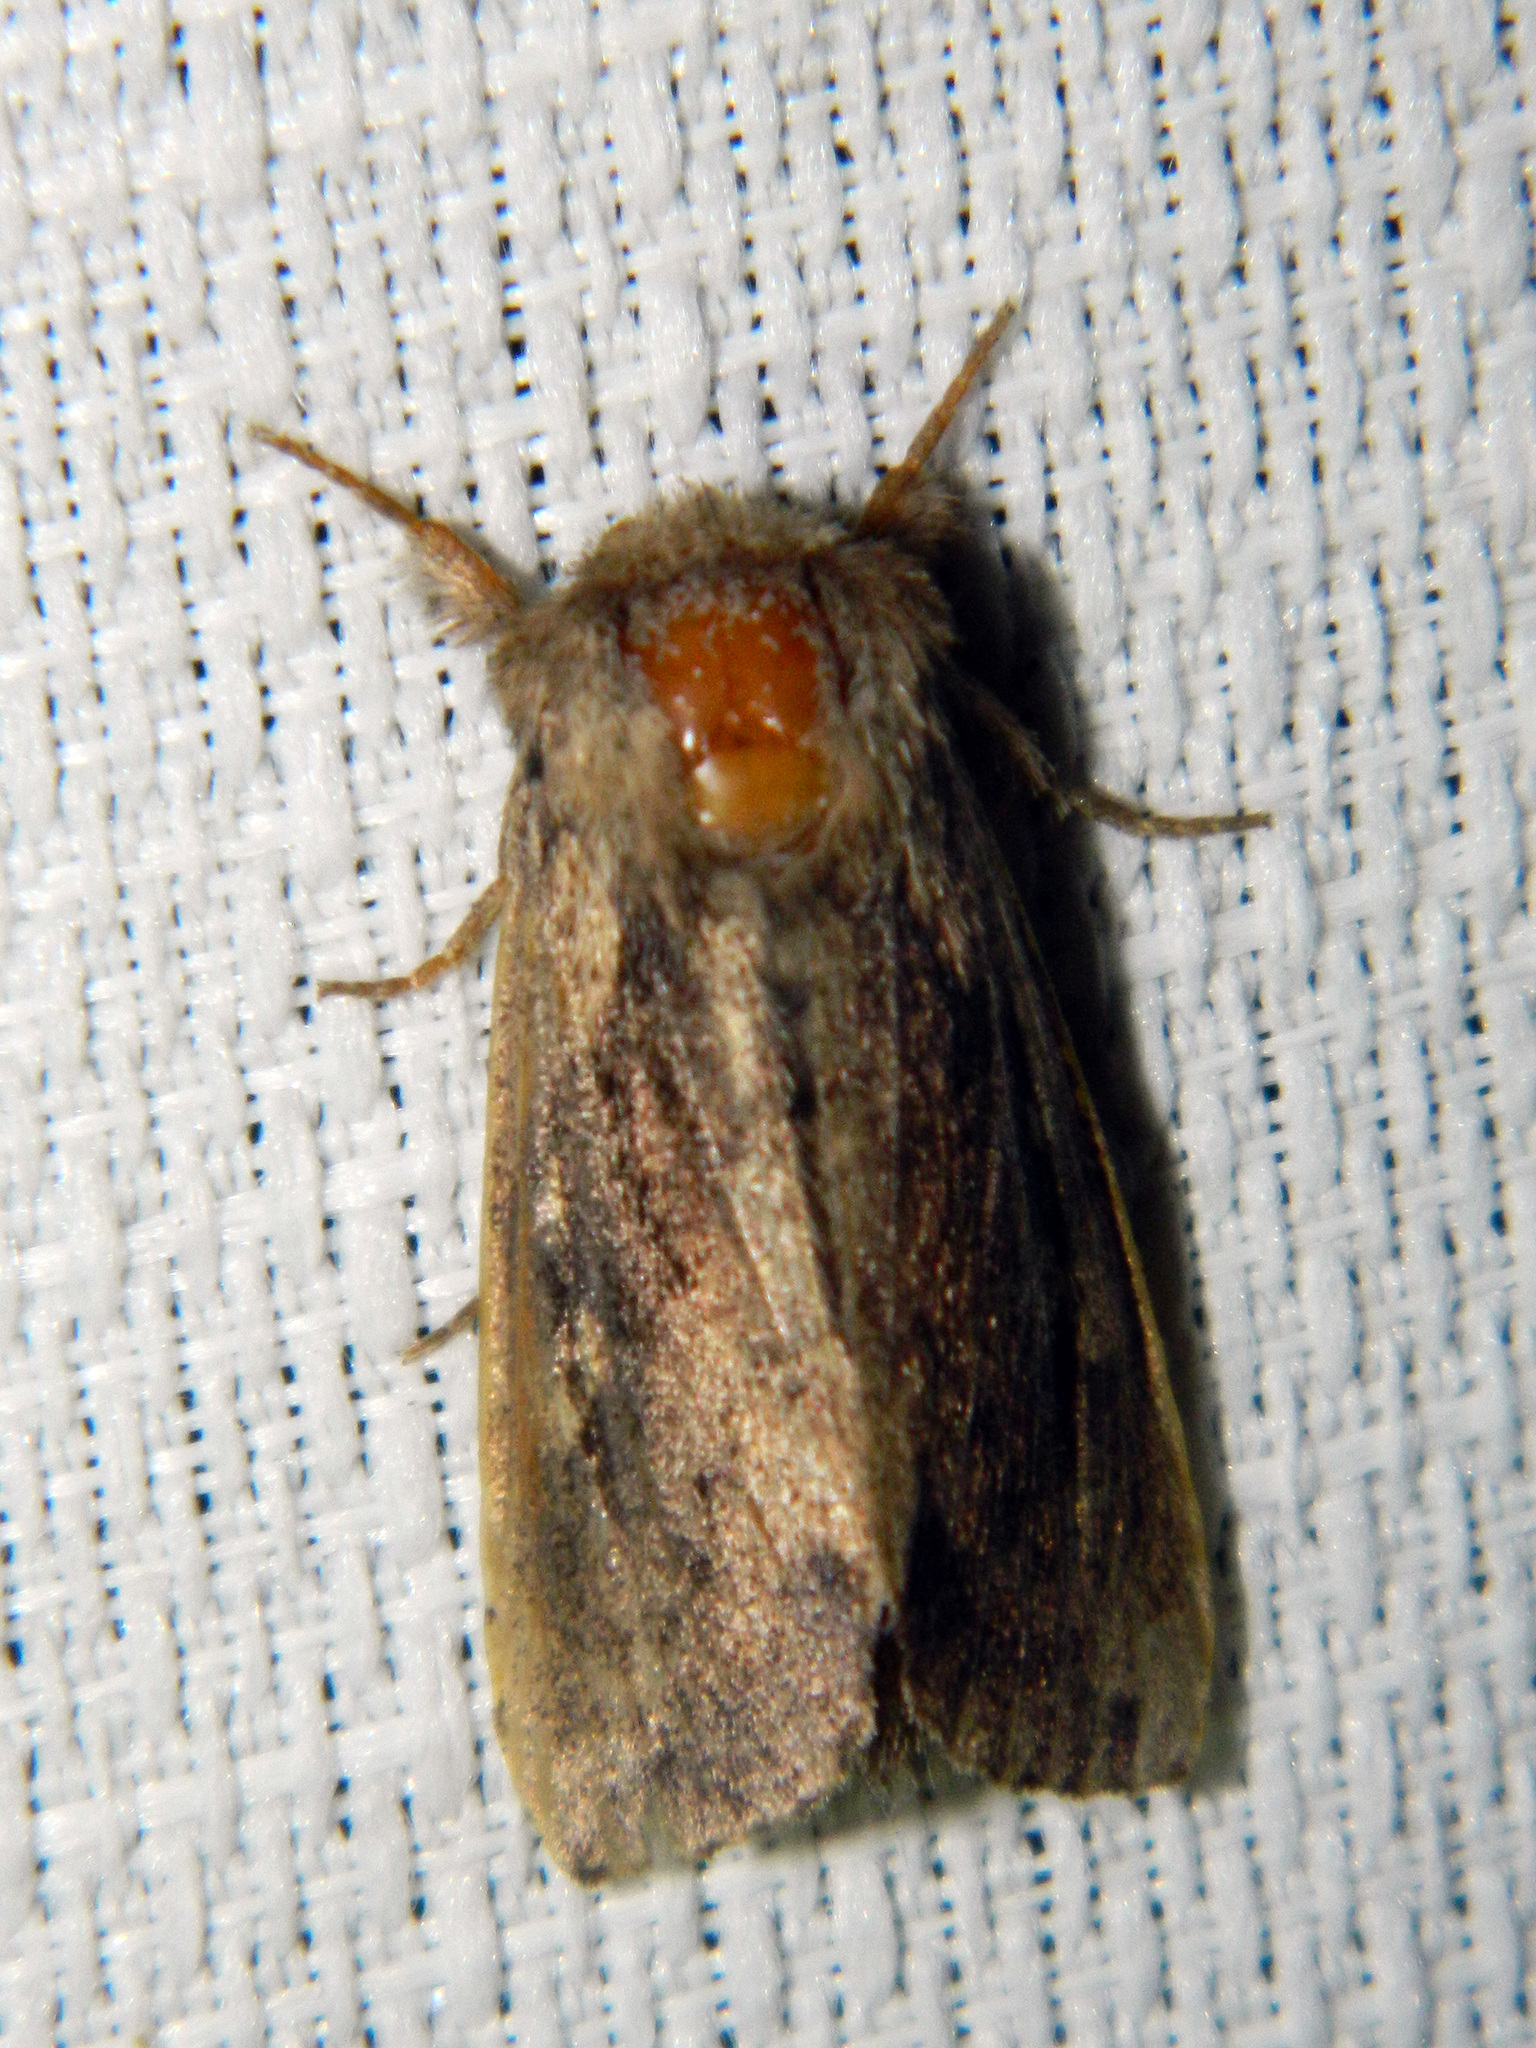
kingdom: Animalia
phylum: Arthropoda
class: Insecta
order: Lepidoptera
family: Noctuidae
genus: Bellura
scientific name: Bellura vulnifica
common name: Black-tailed diver moth
